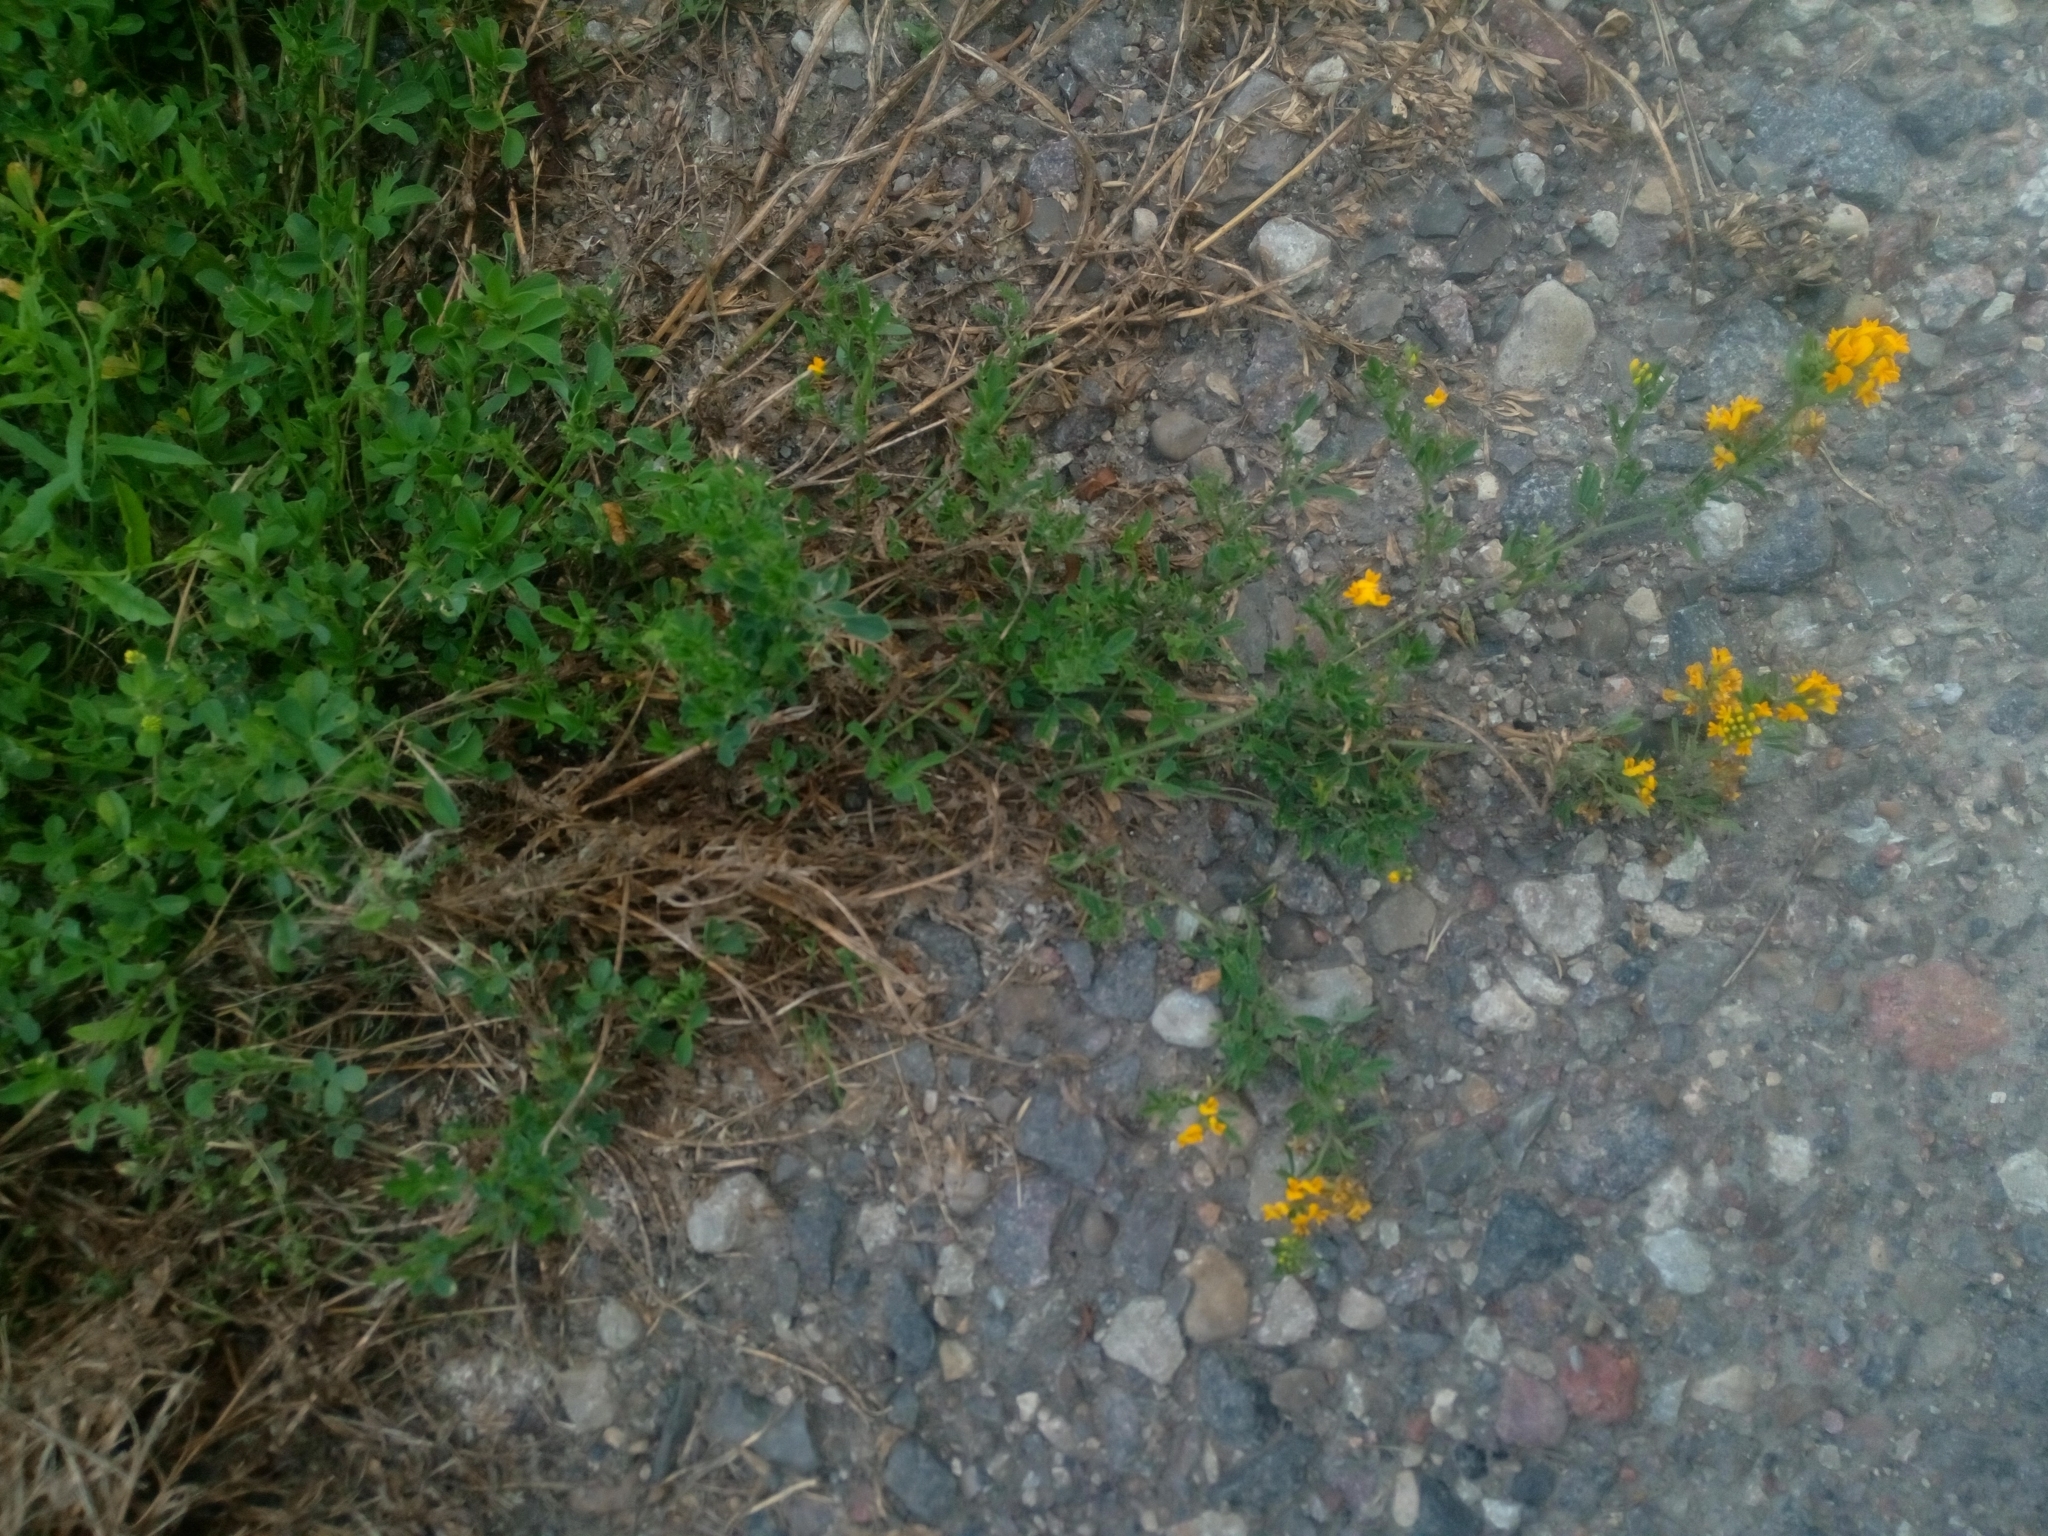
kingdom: Plantae
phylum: Tracheophyta
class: Magnoliopsida
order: Fabales
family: Fabaceae
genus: Medicago
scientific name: Medicago falcata
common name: Sickle medick
